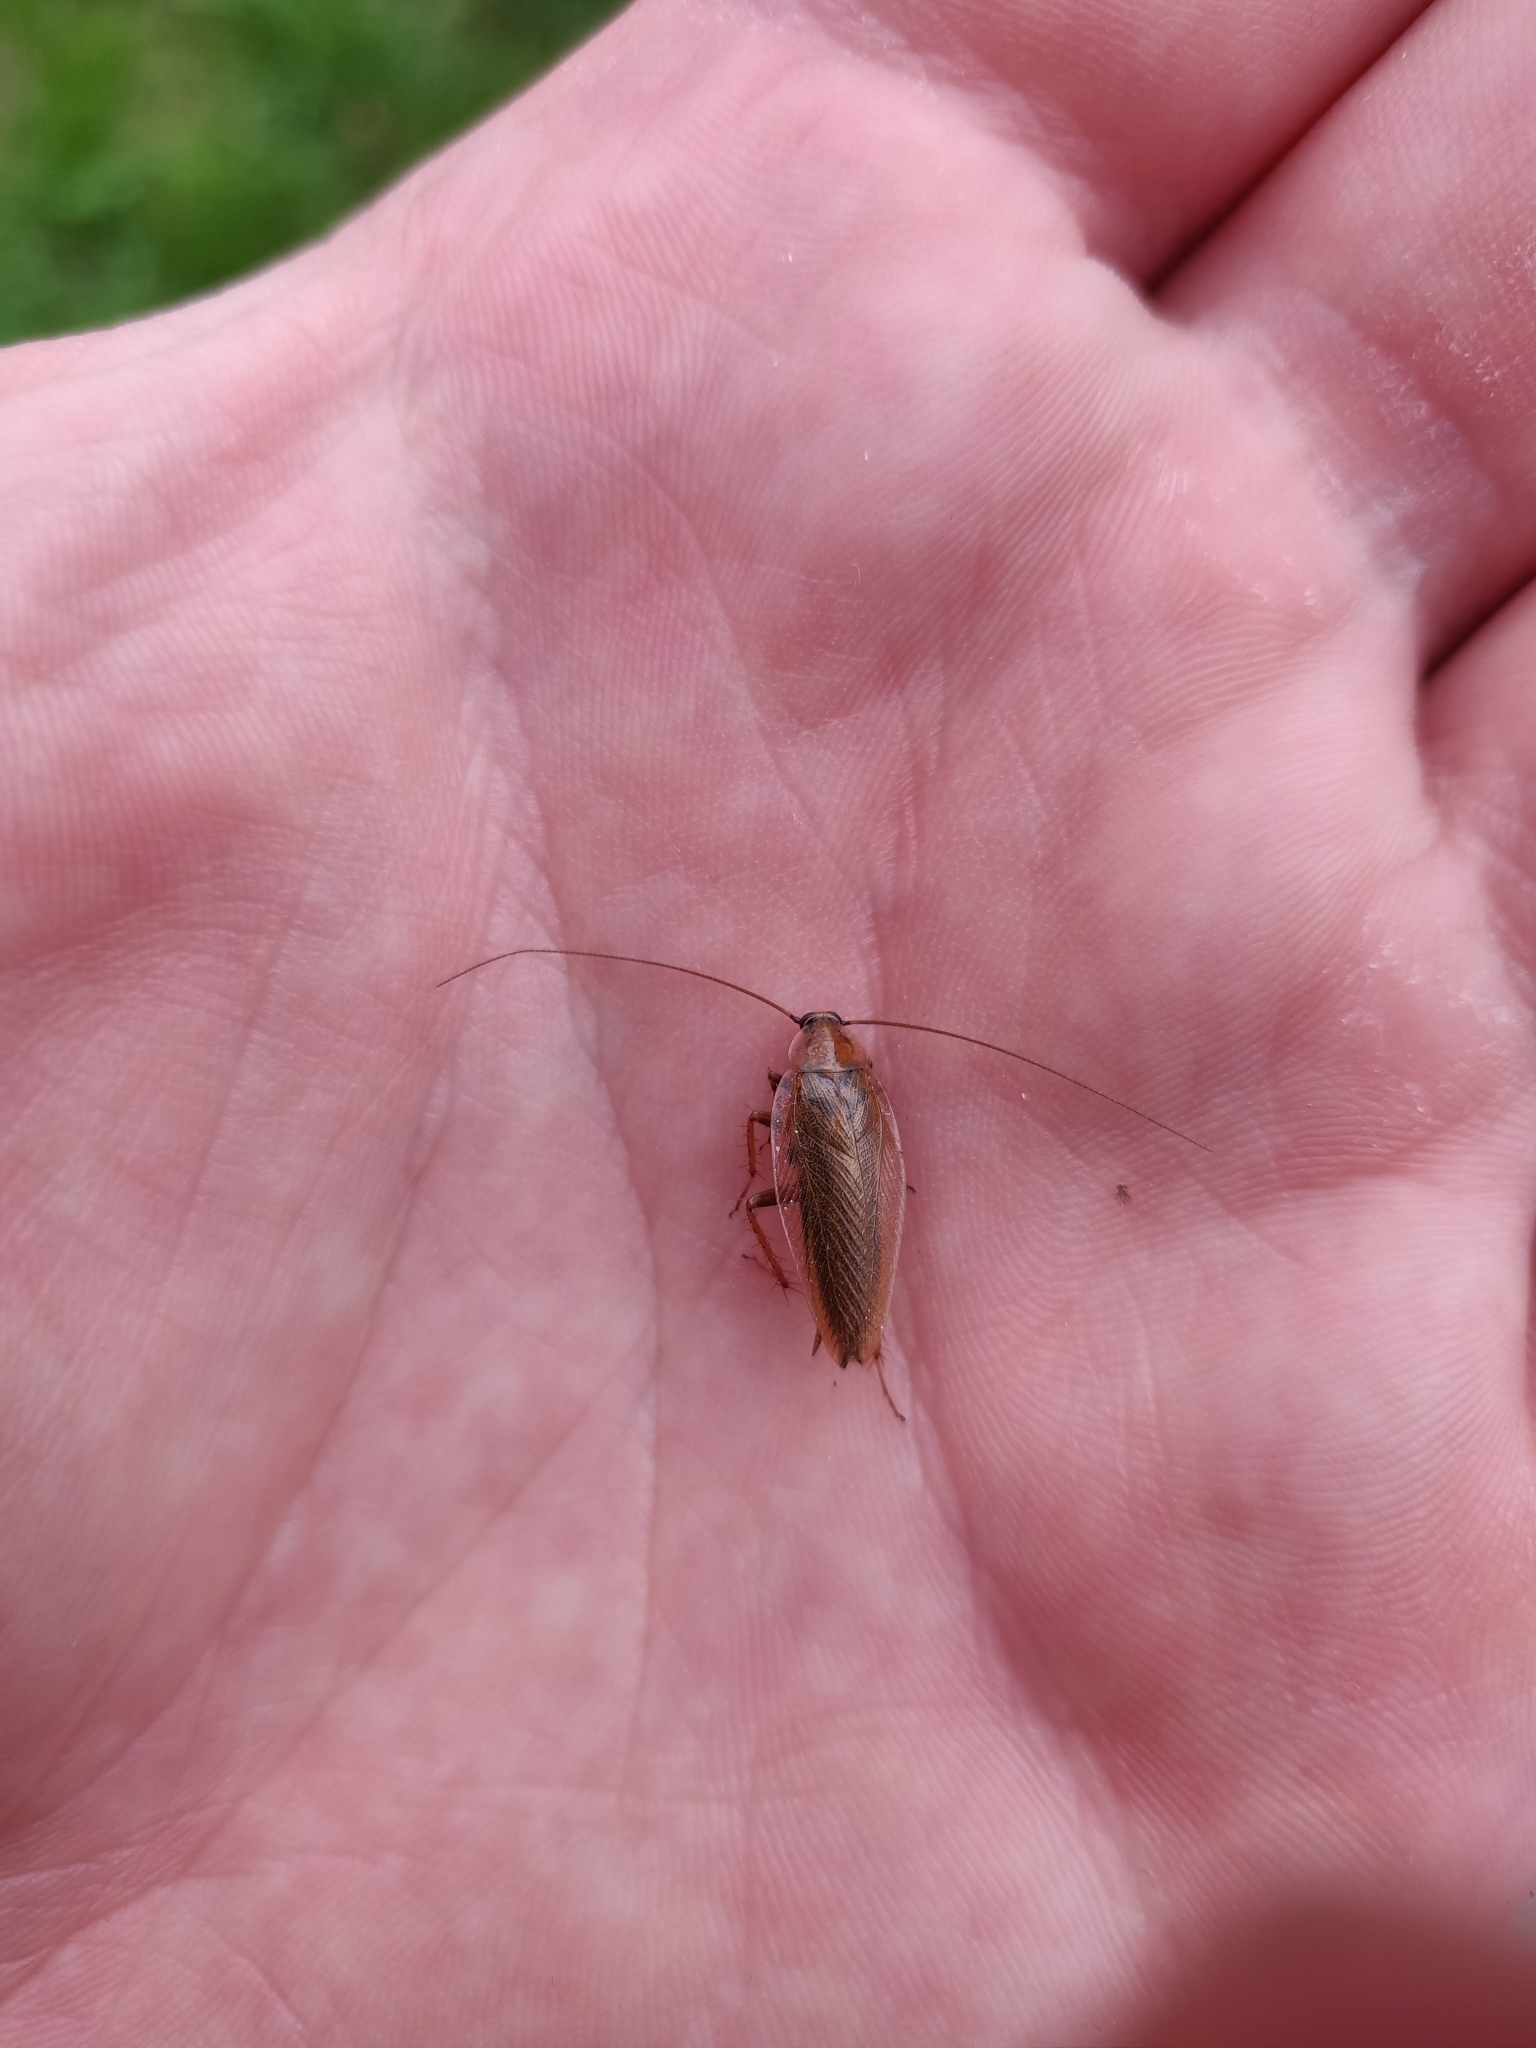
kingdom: Animalia
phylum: Arthropoda
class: Insecta
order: Blattodea
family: Ectobiidae
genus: Ectobius
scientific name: Ectobius vittiventris
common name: Garden cockroach
